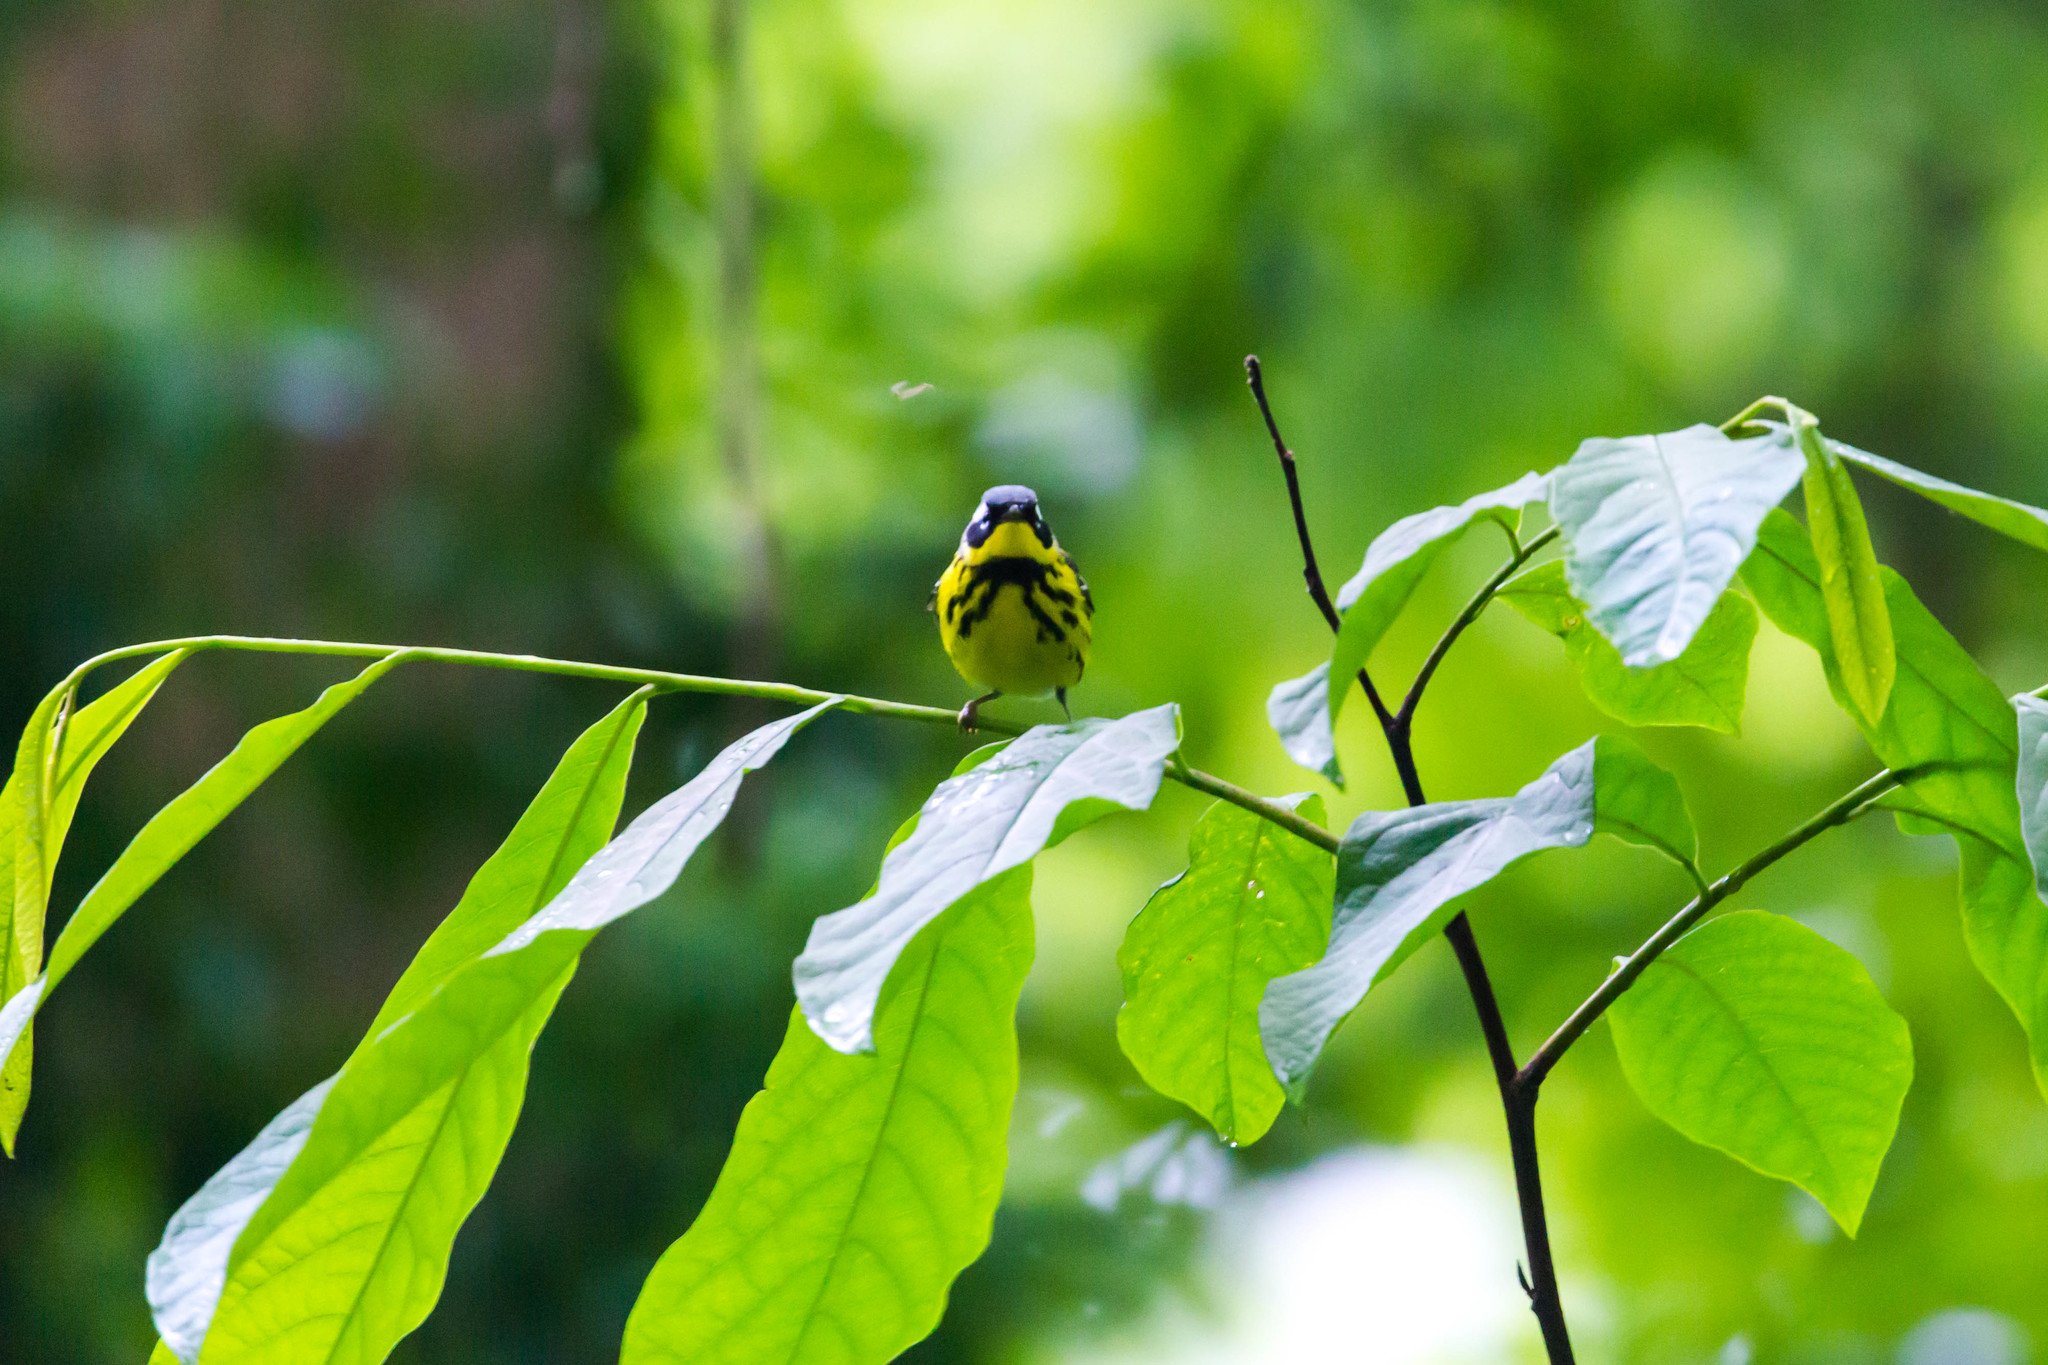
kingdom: Animalia
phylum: Chordata
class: Aves
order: Passeriformes
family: Parulidae
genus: Setophaga
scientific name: Setophaga magnolia
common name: Magnolia warbler
